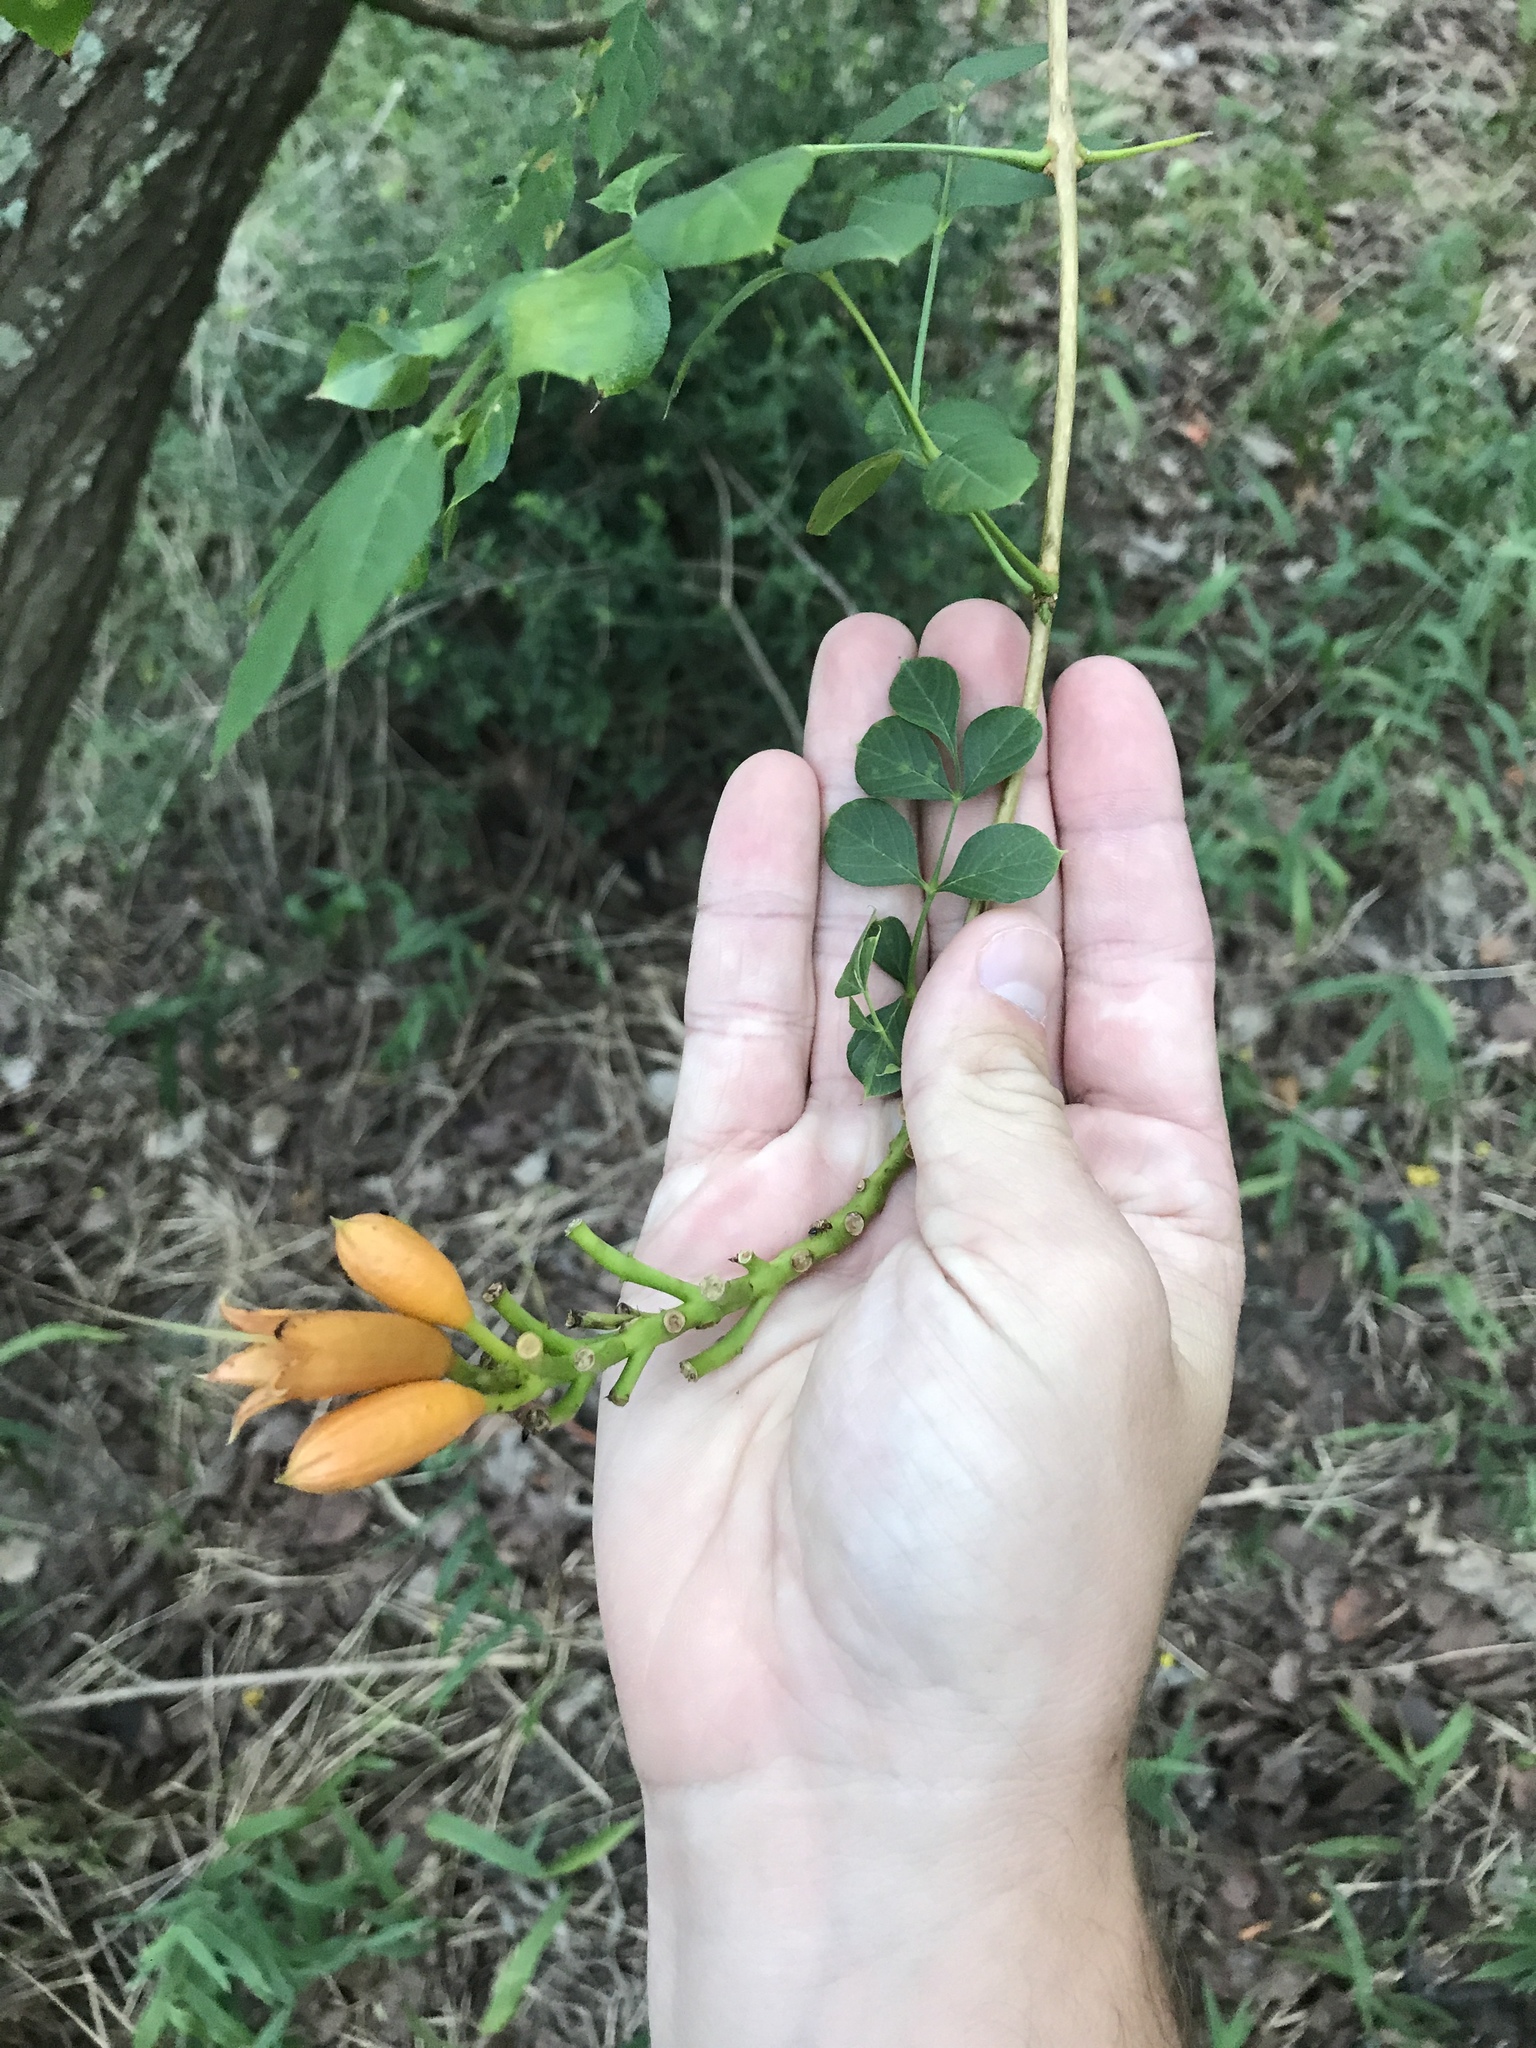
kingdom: Plantae
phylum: Tracheophyta
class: Magnoliopsida
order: Lamiales
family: Bignoniaceae
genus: Campsis
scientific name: Campsis radicans
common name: Trumpet-creeper
